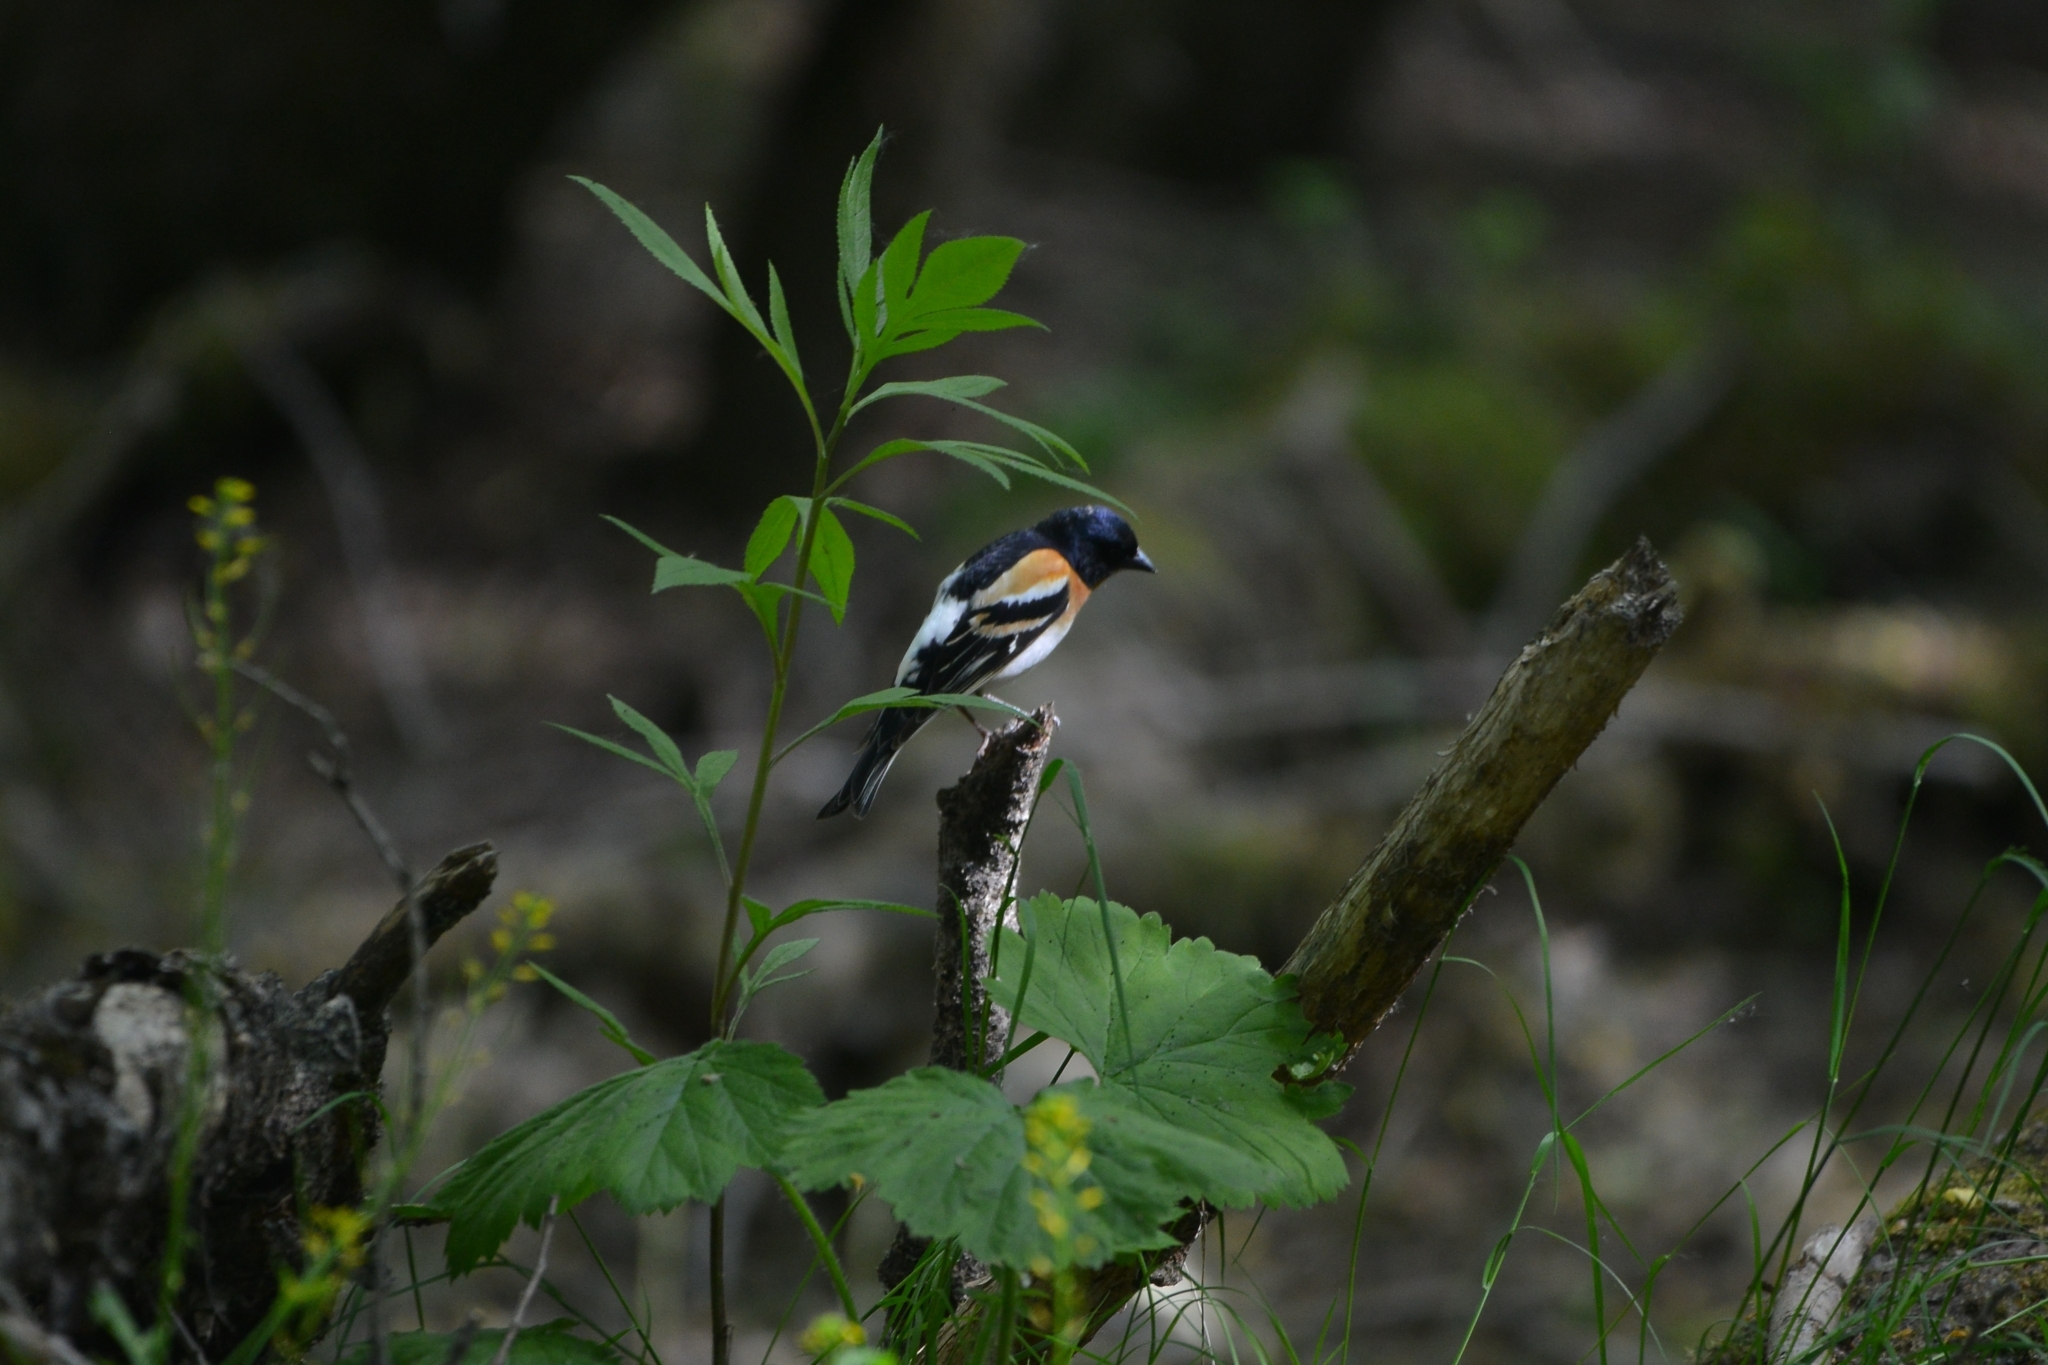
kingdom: Animalia
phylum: Chordata
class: Aves
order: Passeriformes
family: Fringillidae
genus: Fringilla
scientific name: Fringilla montifringilla
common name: Brambling
